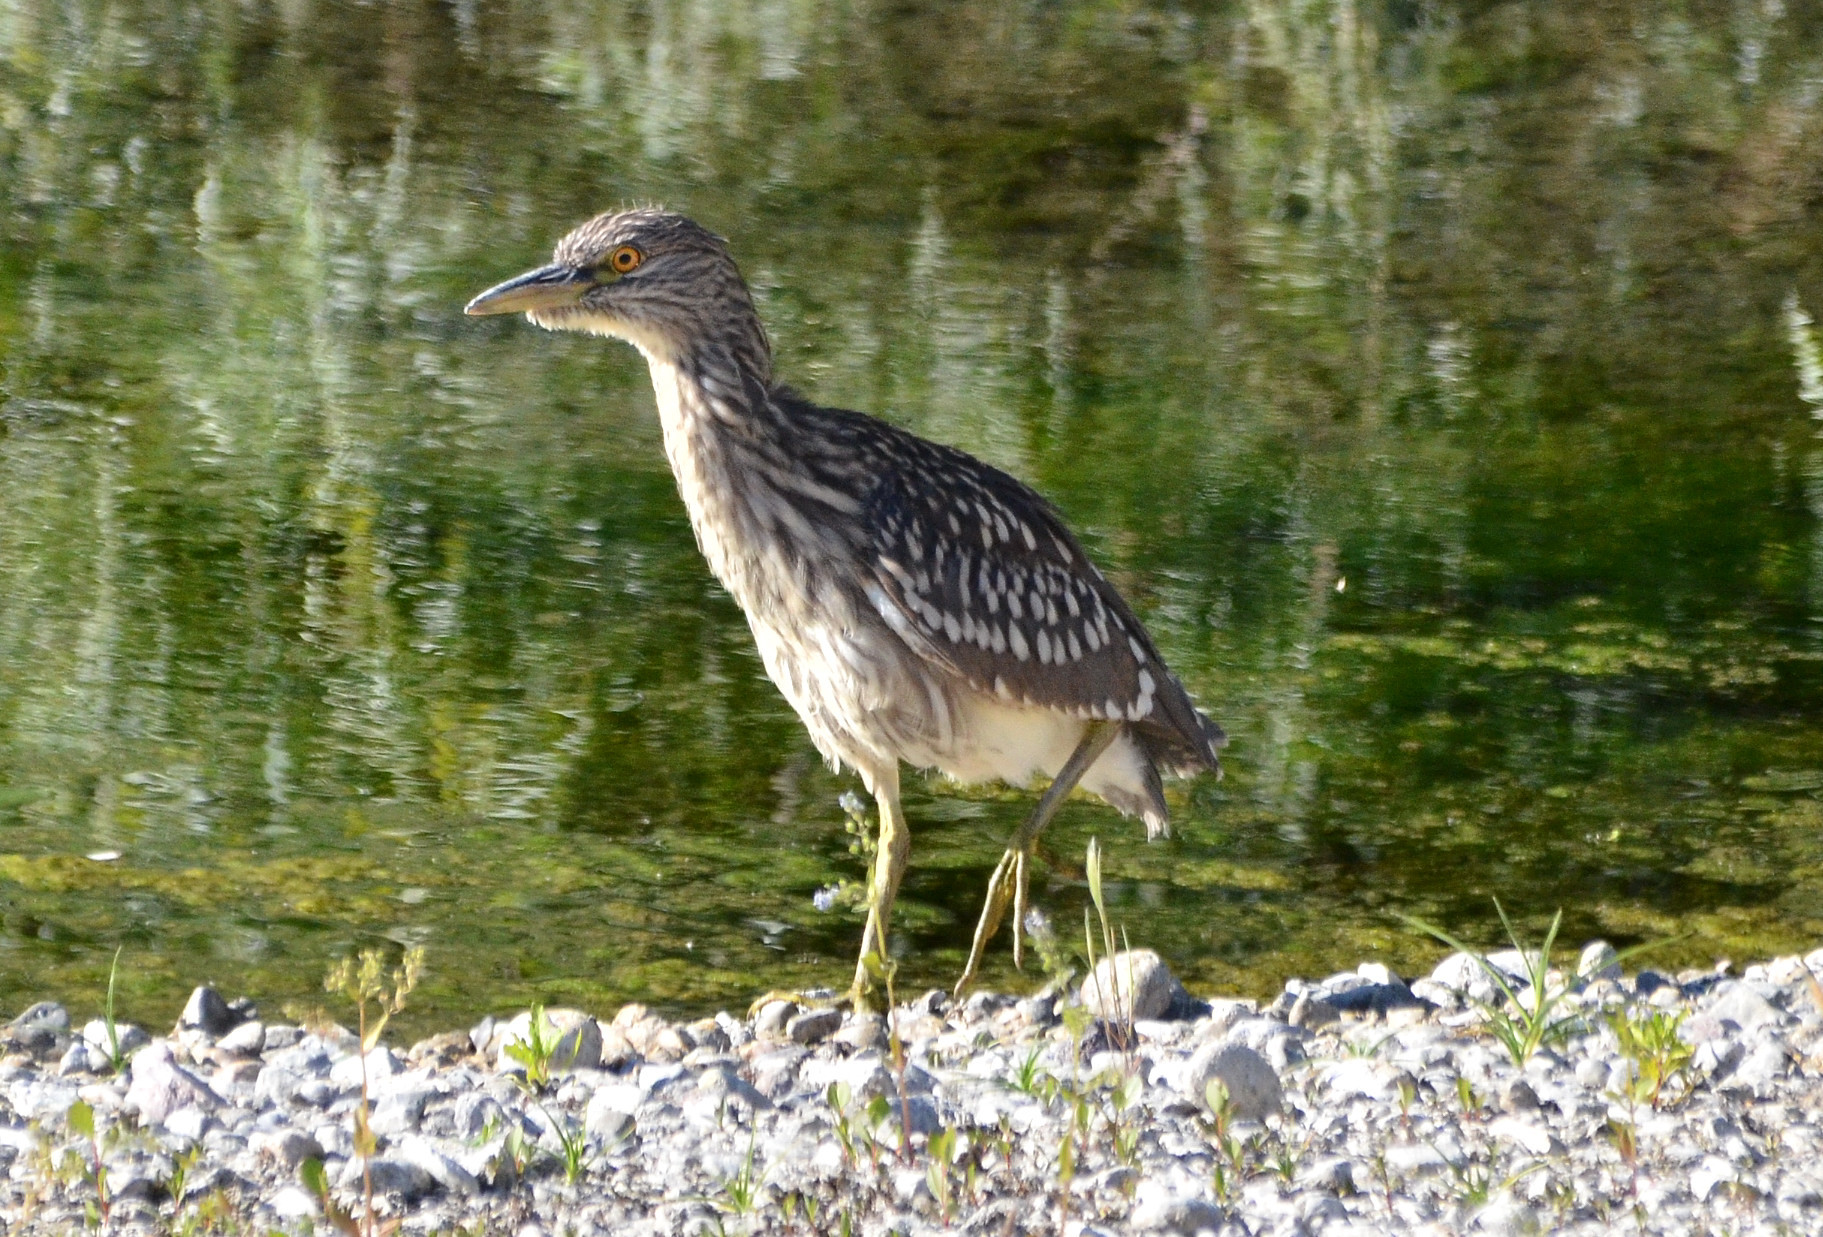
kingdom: Animalia
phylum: Chordata
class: Aves
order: Pelecaniformes
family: Ardeidae
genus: Nycticorax
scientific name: Nycticorax nycticorax
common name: Black-crowned night heron
